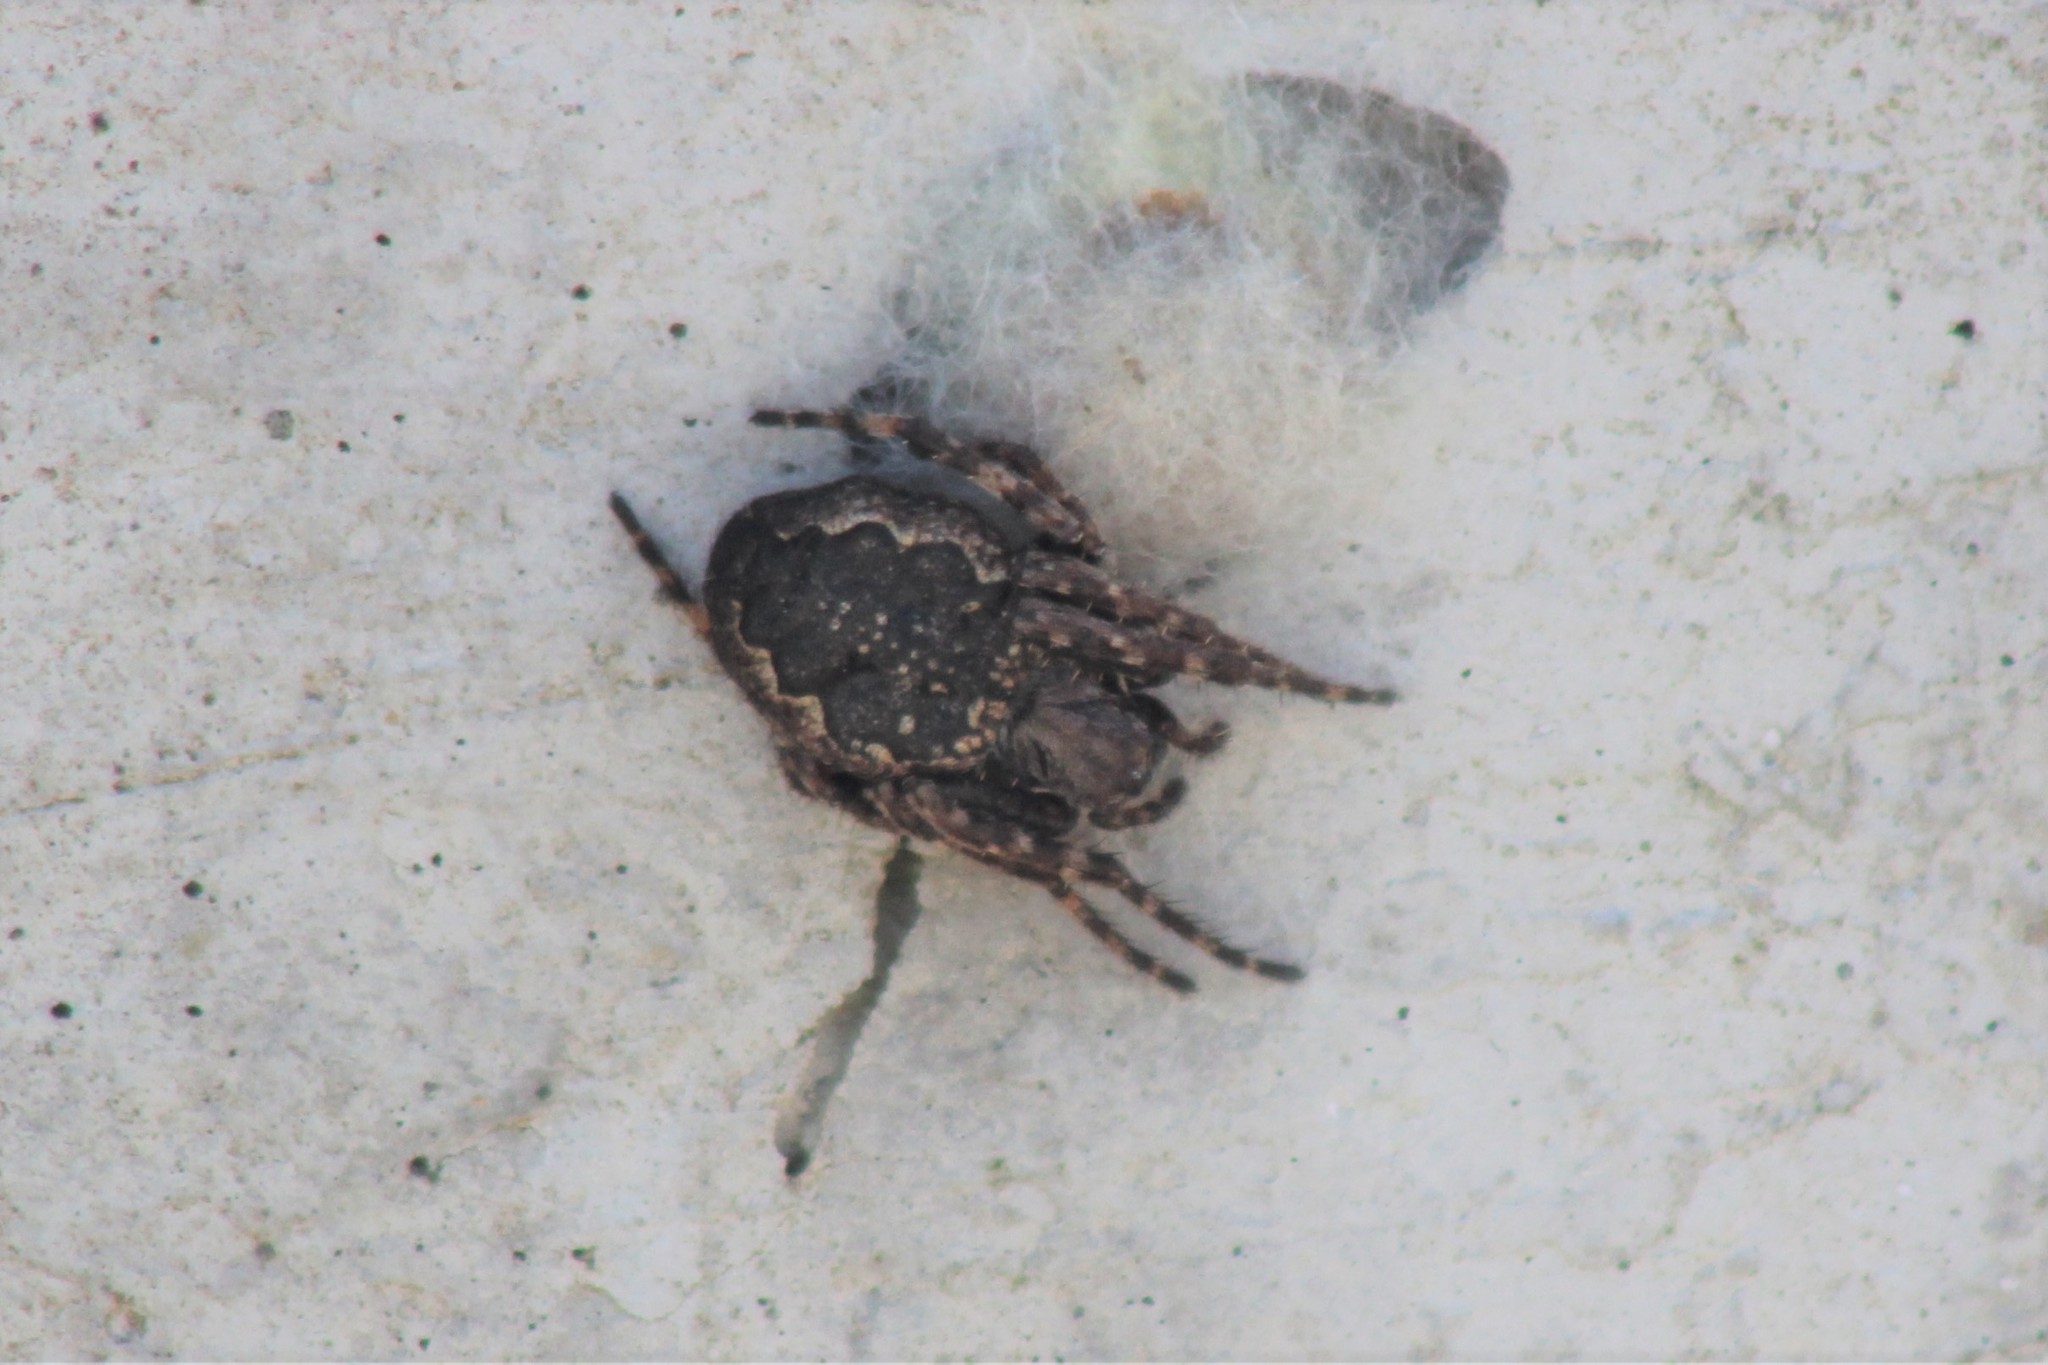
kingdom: Animalia
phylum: Arthropoda
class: Arachnida
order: Araneae
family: Araneidae
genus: Nuctenea
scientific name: Nuctenea umbratica
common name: Toad spider
